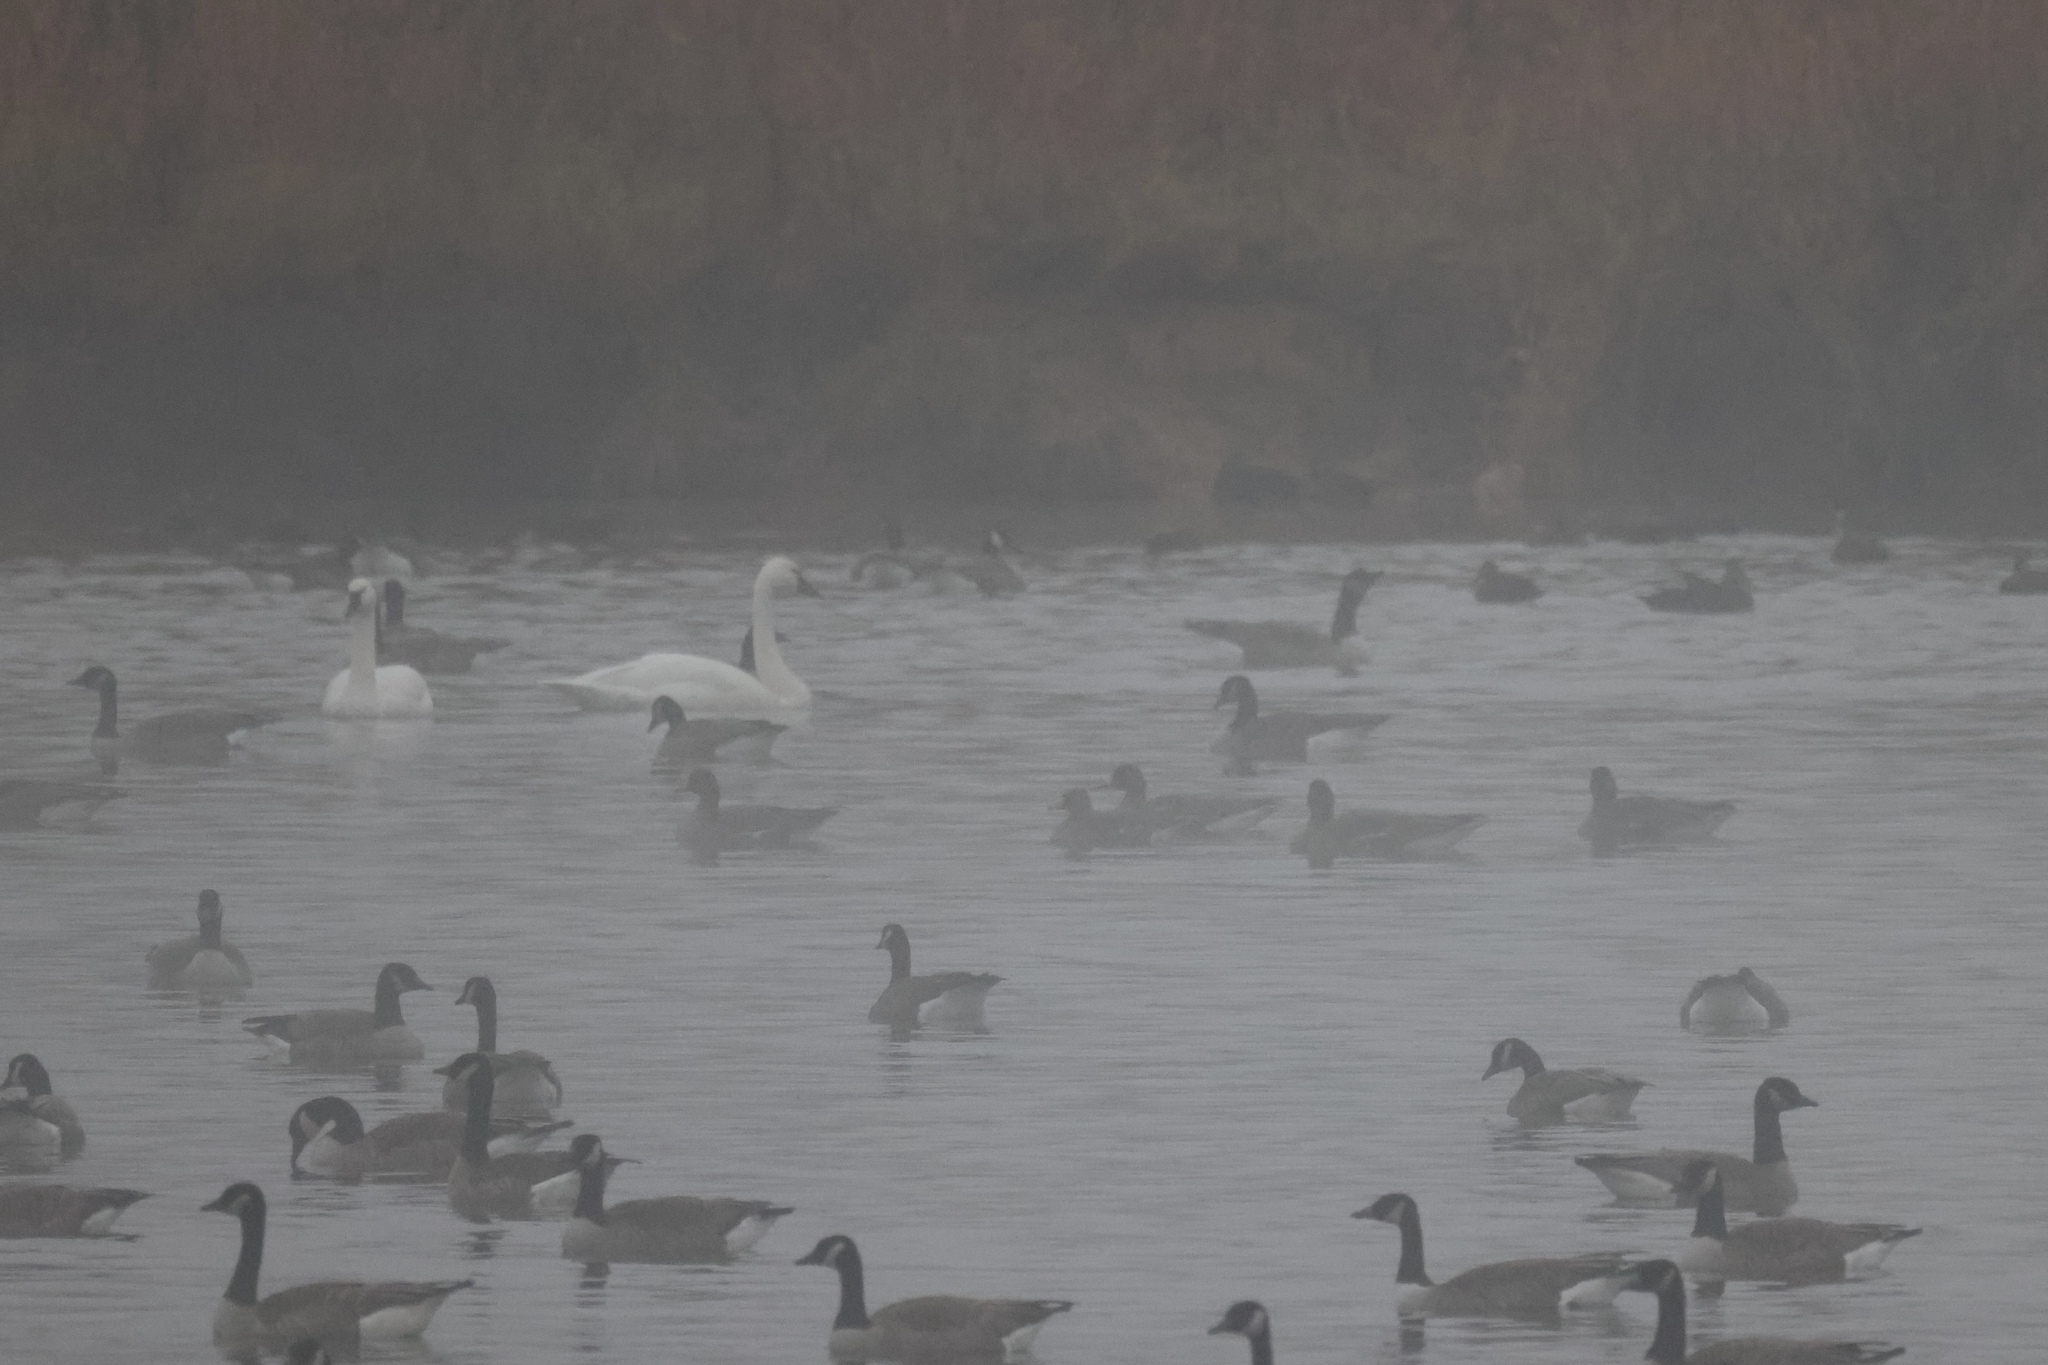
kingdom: Animalia
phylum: Chordata
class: Aves
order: Anseriformes
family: Anatidae
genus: Cygnus
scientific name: Cygnus columbianus
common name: Tundra swan
